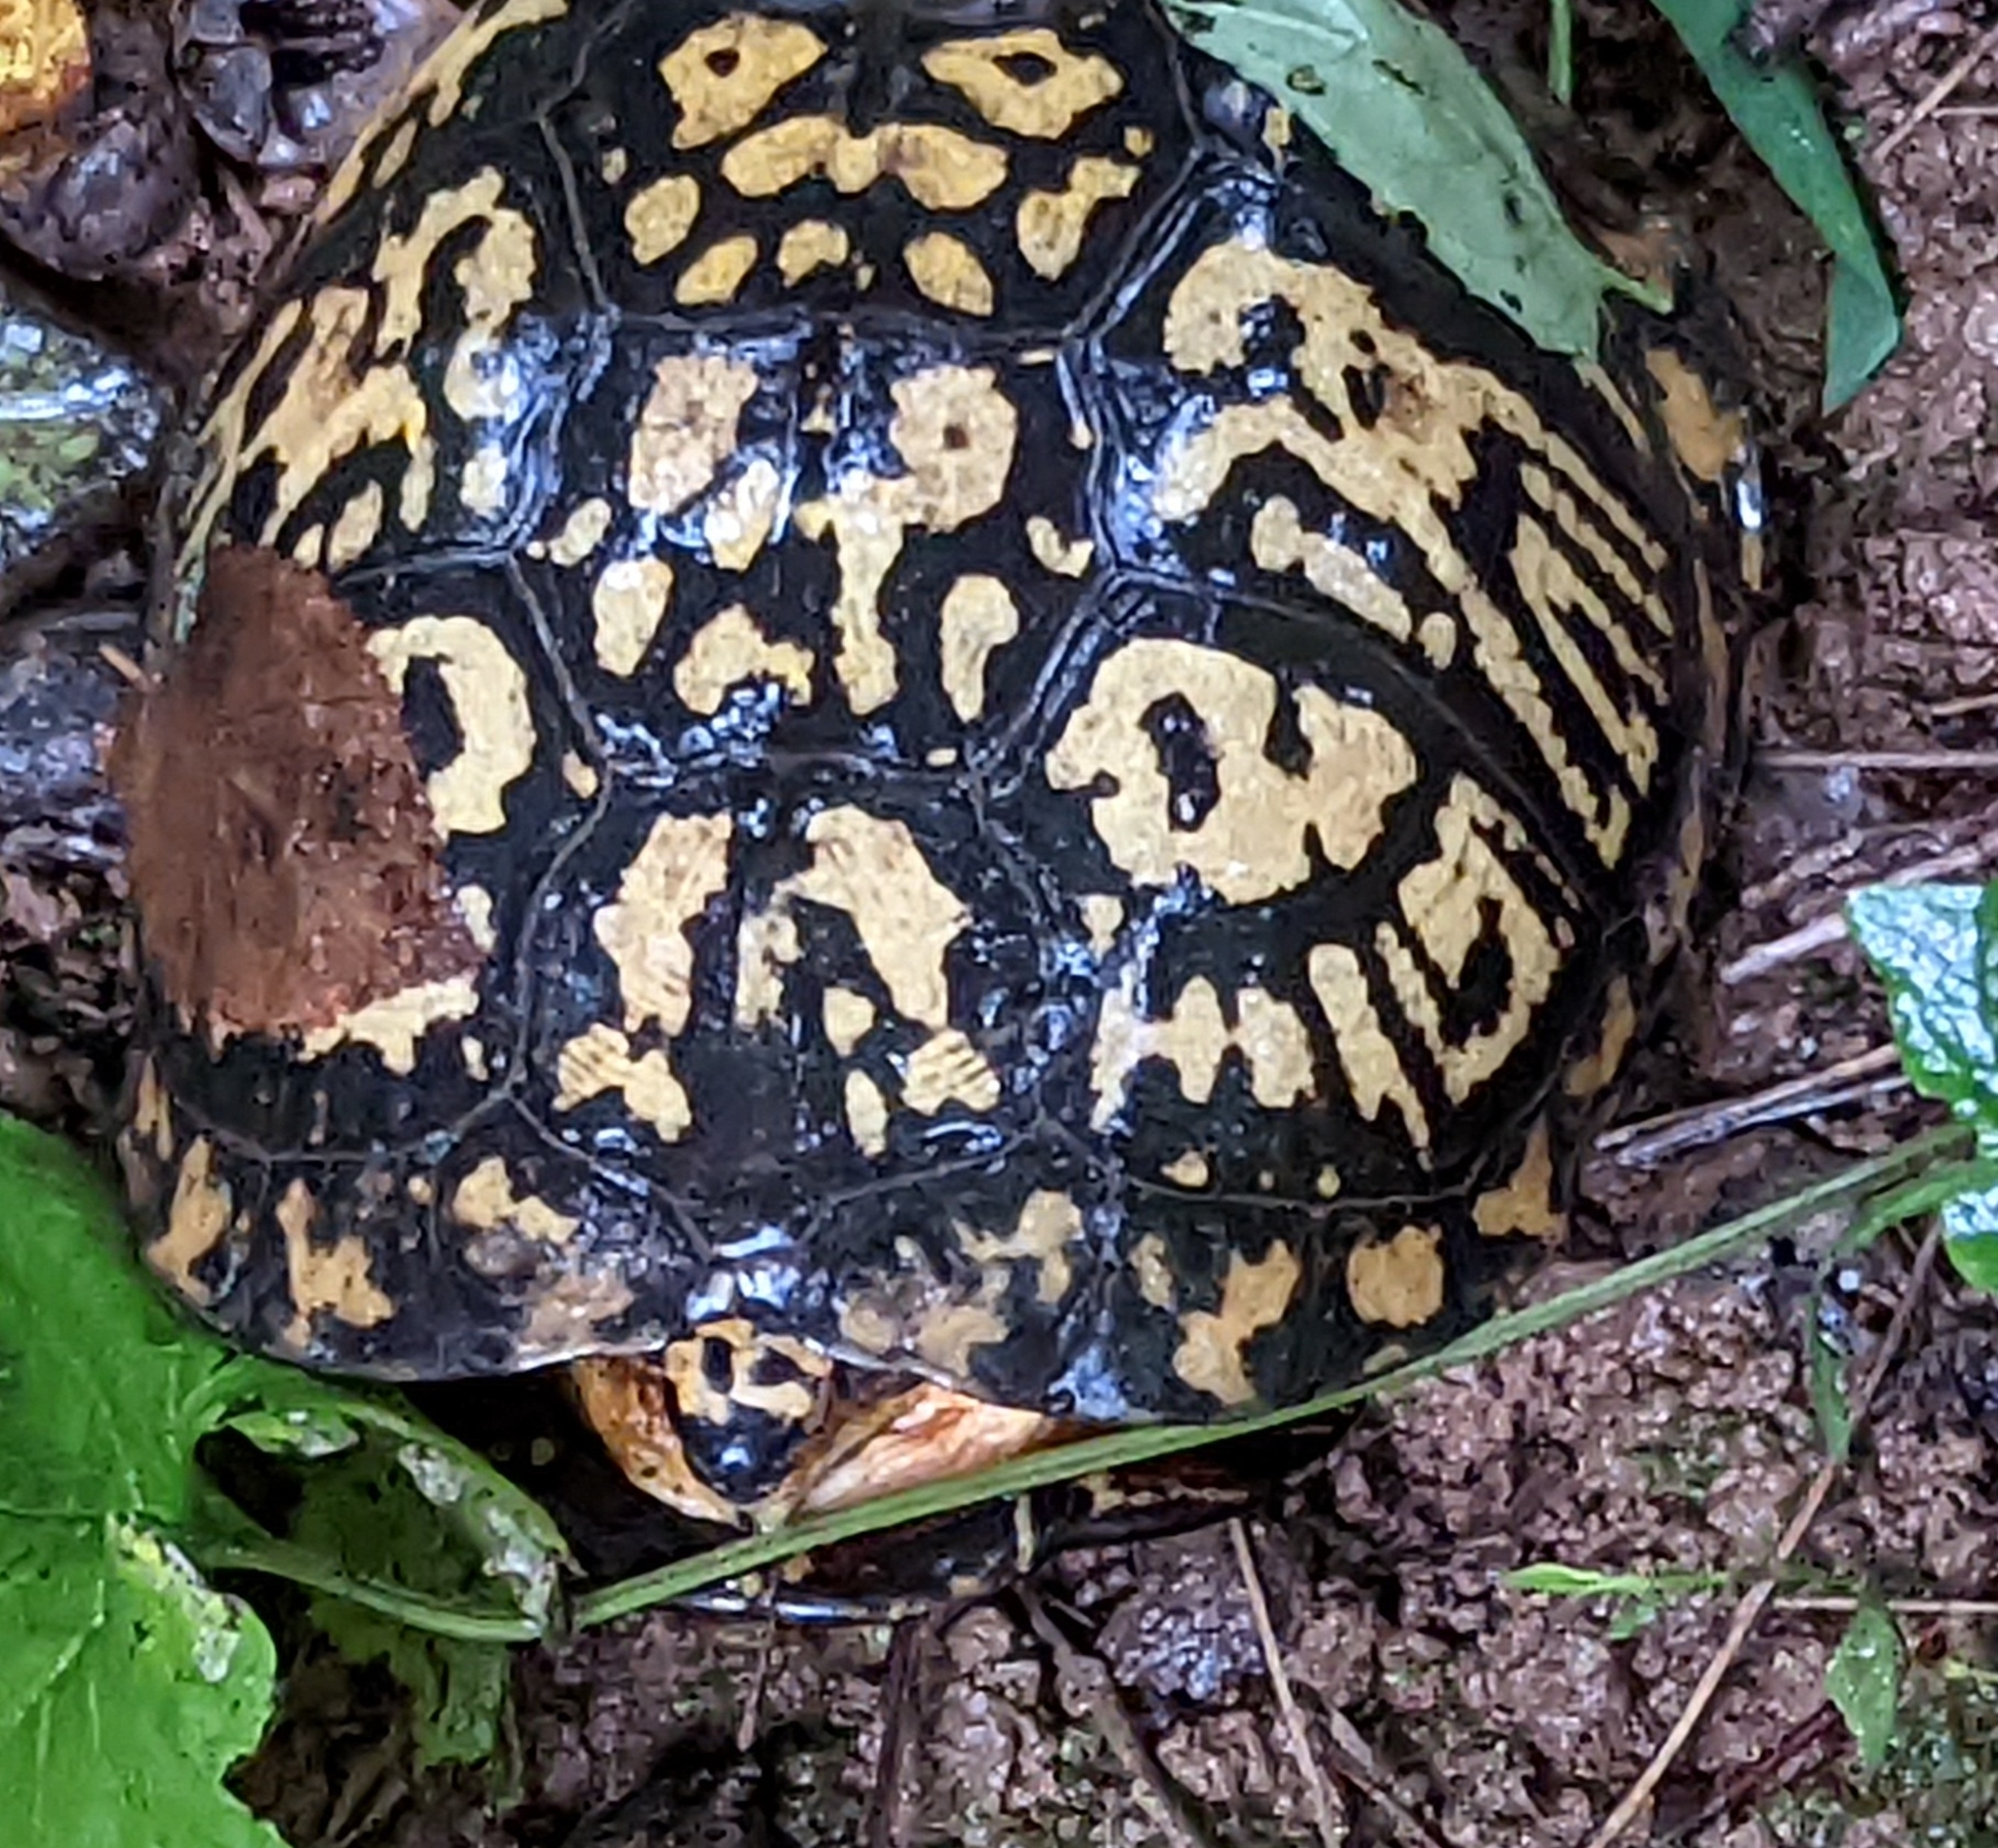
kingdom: Animalia
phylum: Chordata
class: Testudines
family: Emydidae
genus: Terrapene
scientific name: Terrapene carolina
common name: Common box turtle
